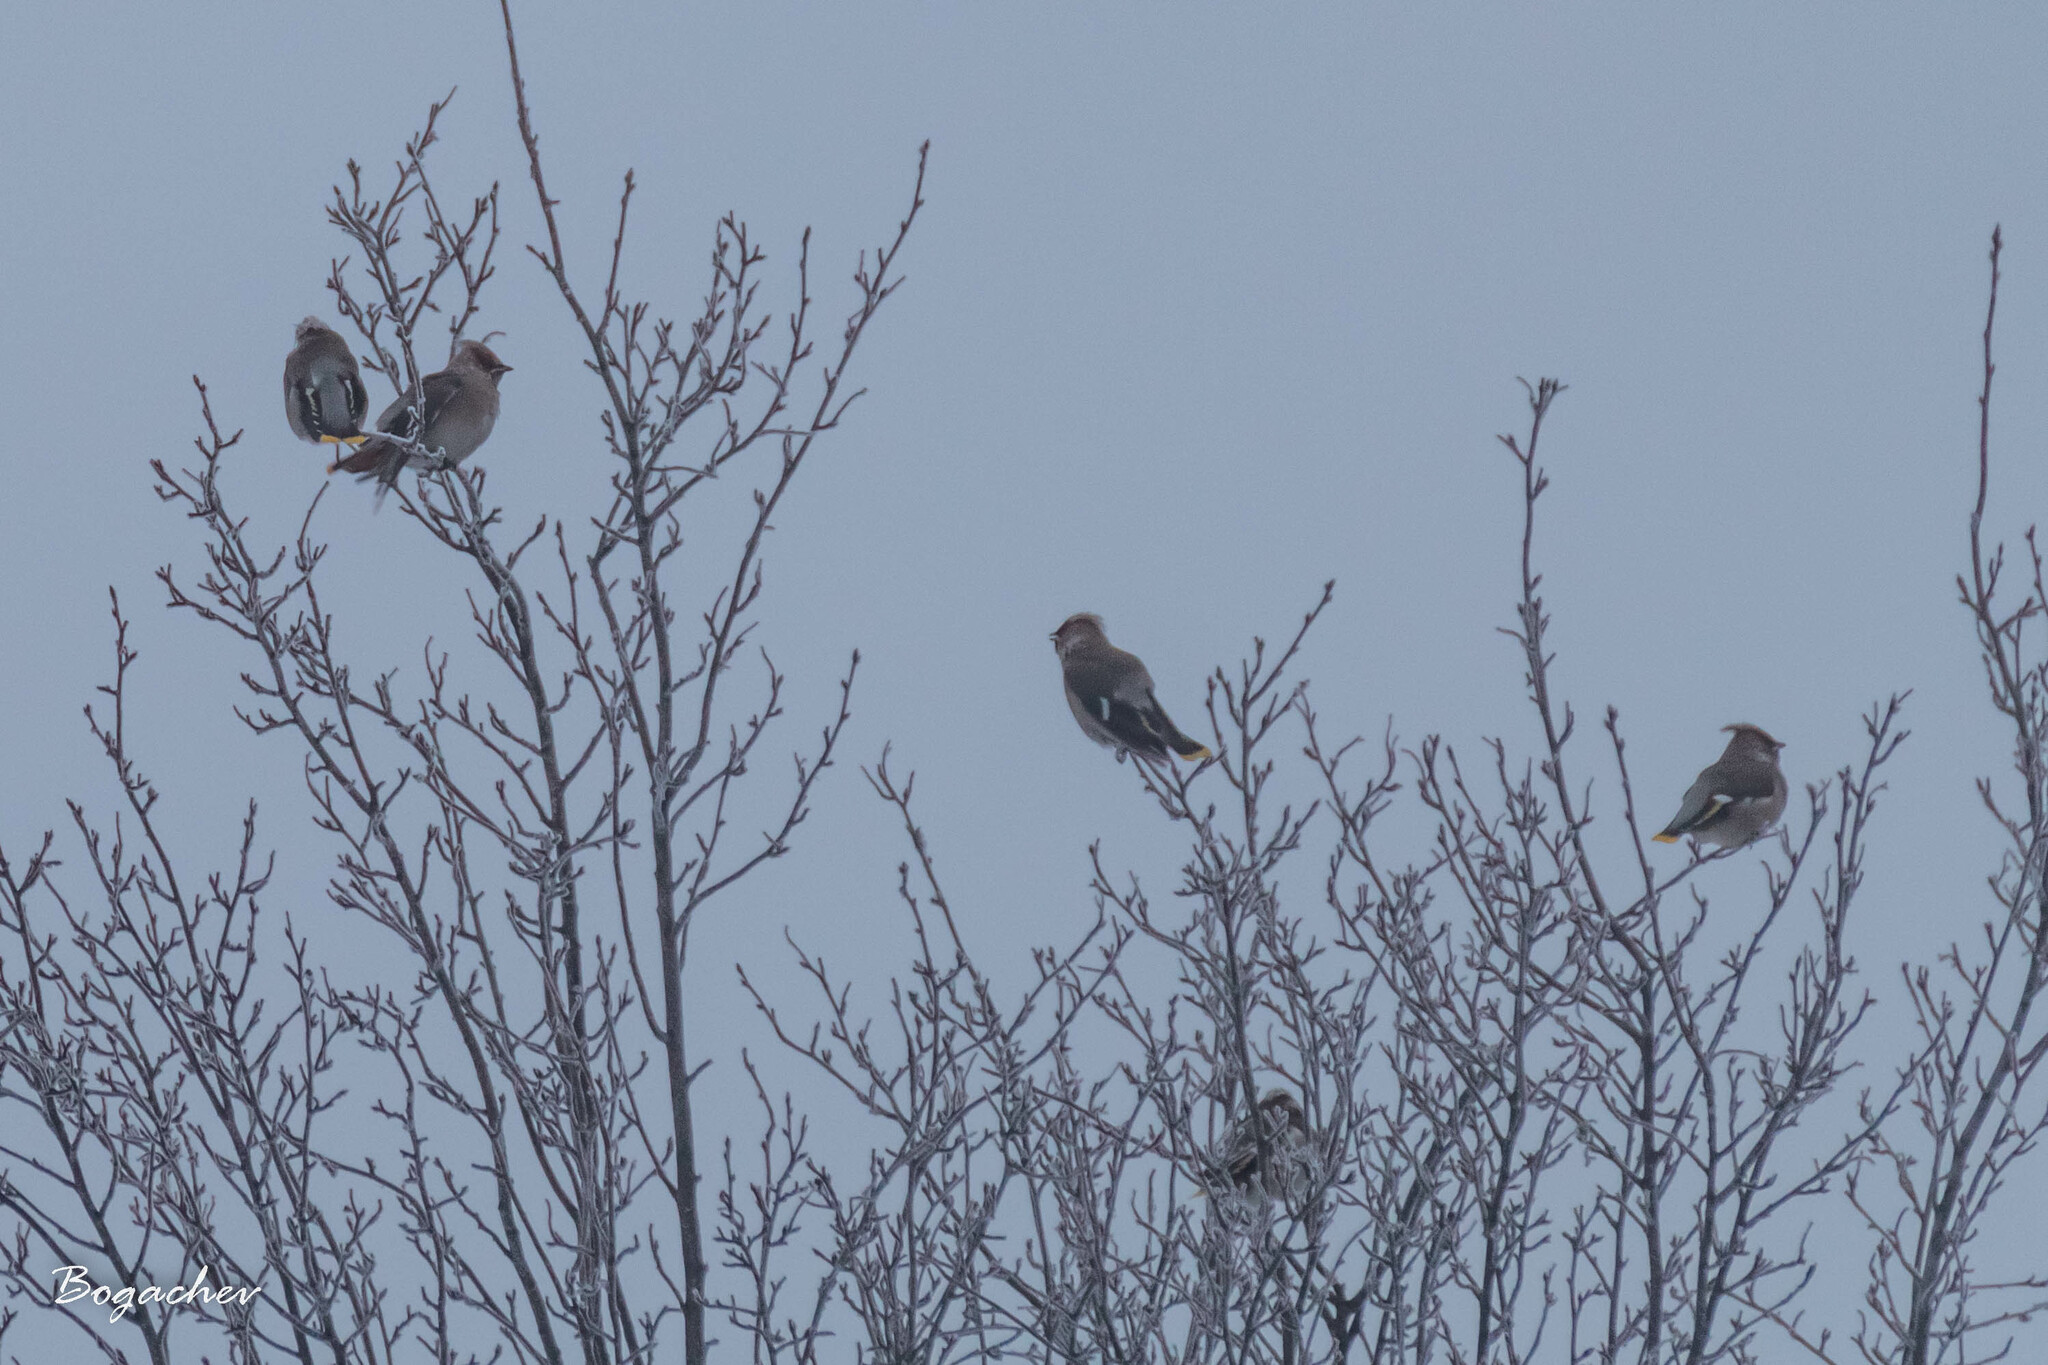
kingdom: Animalia
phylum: Chordata
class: Aves
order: Passeriformes
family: Bombycillidae
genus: Bombycilla
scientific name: Bombycilla garrulus
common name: Bohemian waxwing
